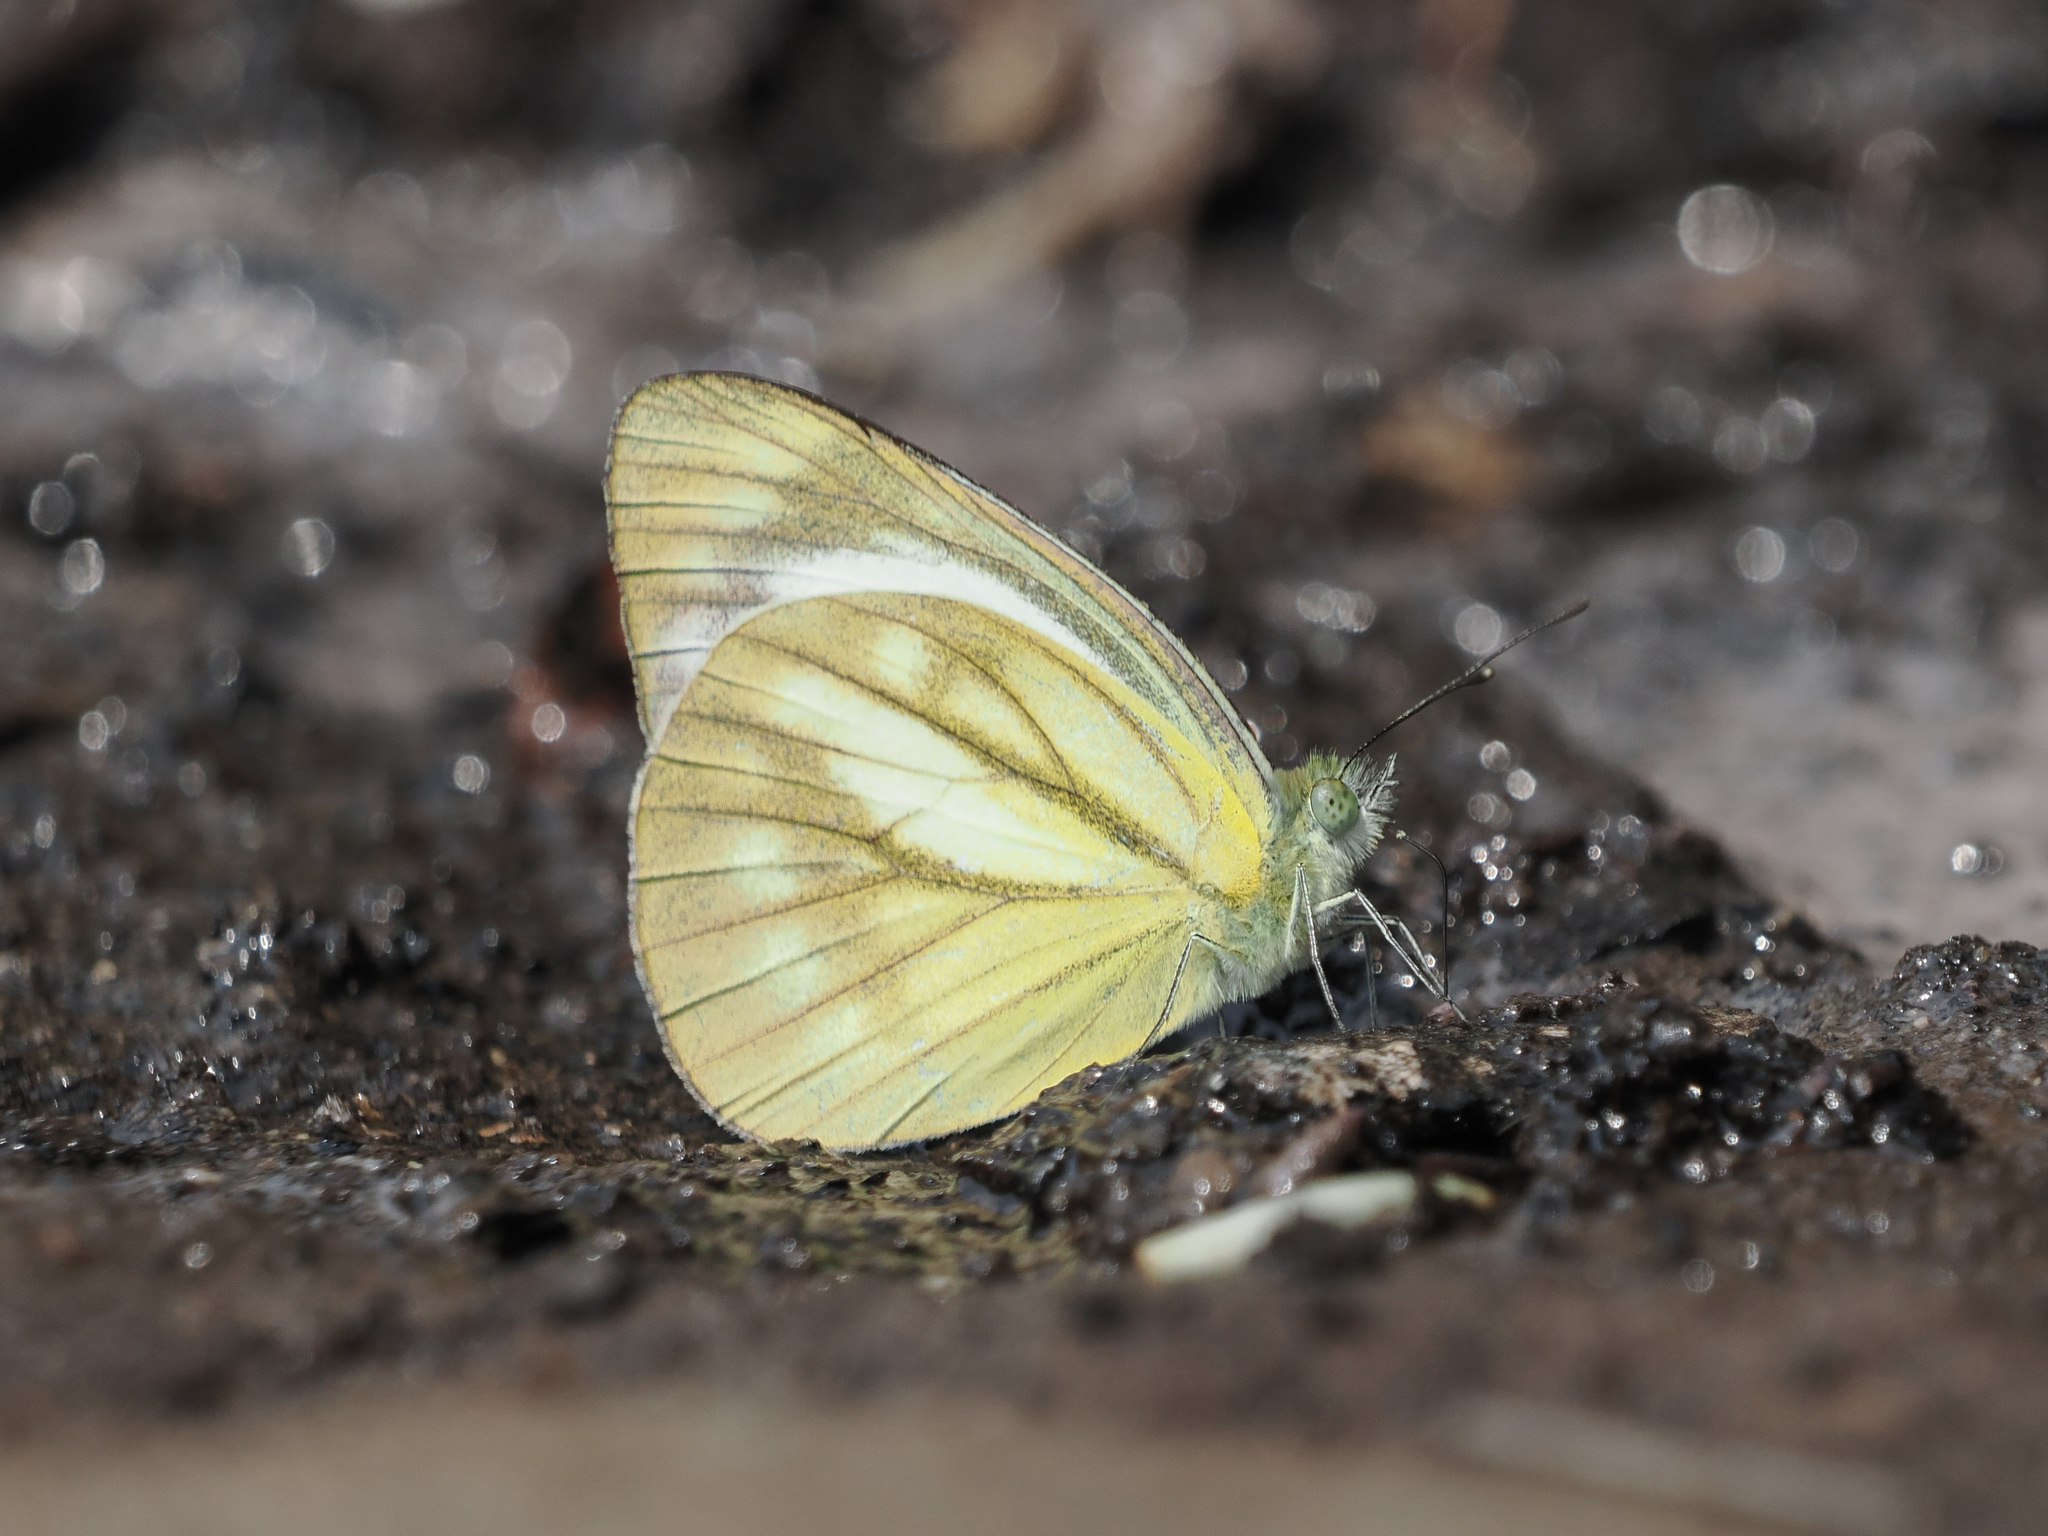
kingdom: Animalia
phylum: Arthropoda
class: Insecta
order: Lepidoptera
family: Pieridae
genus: Cepora
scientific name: Cepora nerissa
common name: Common gull
